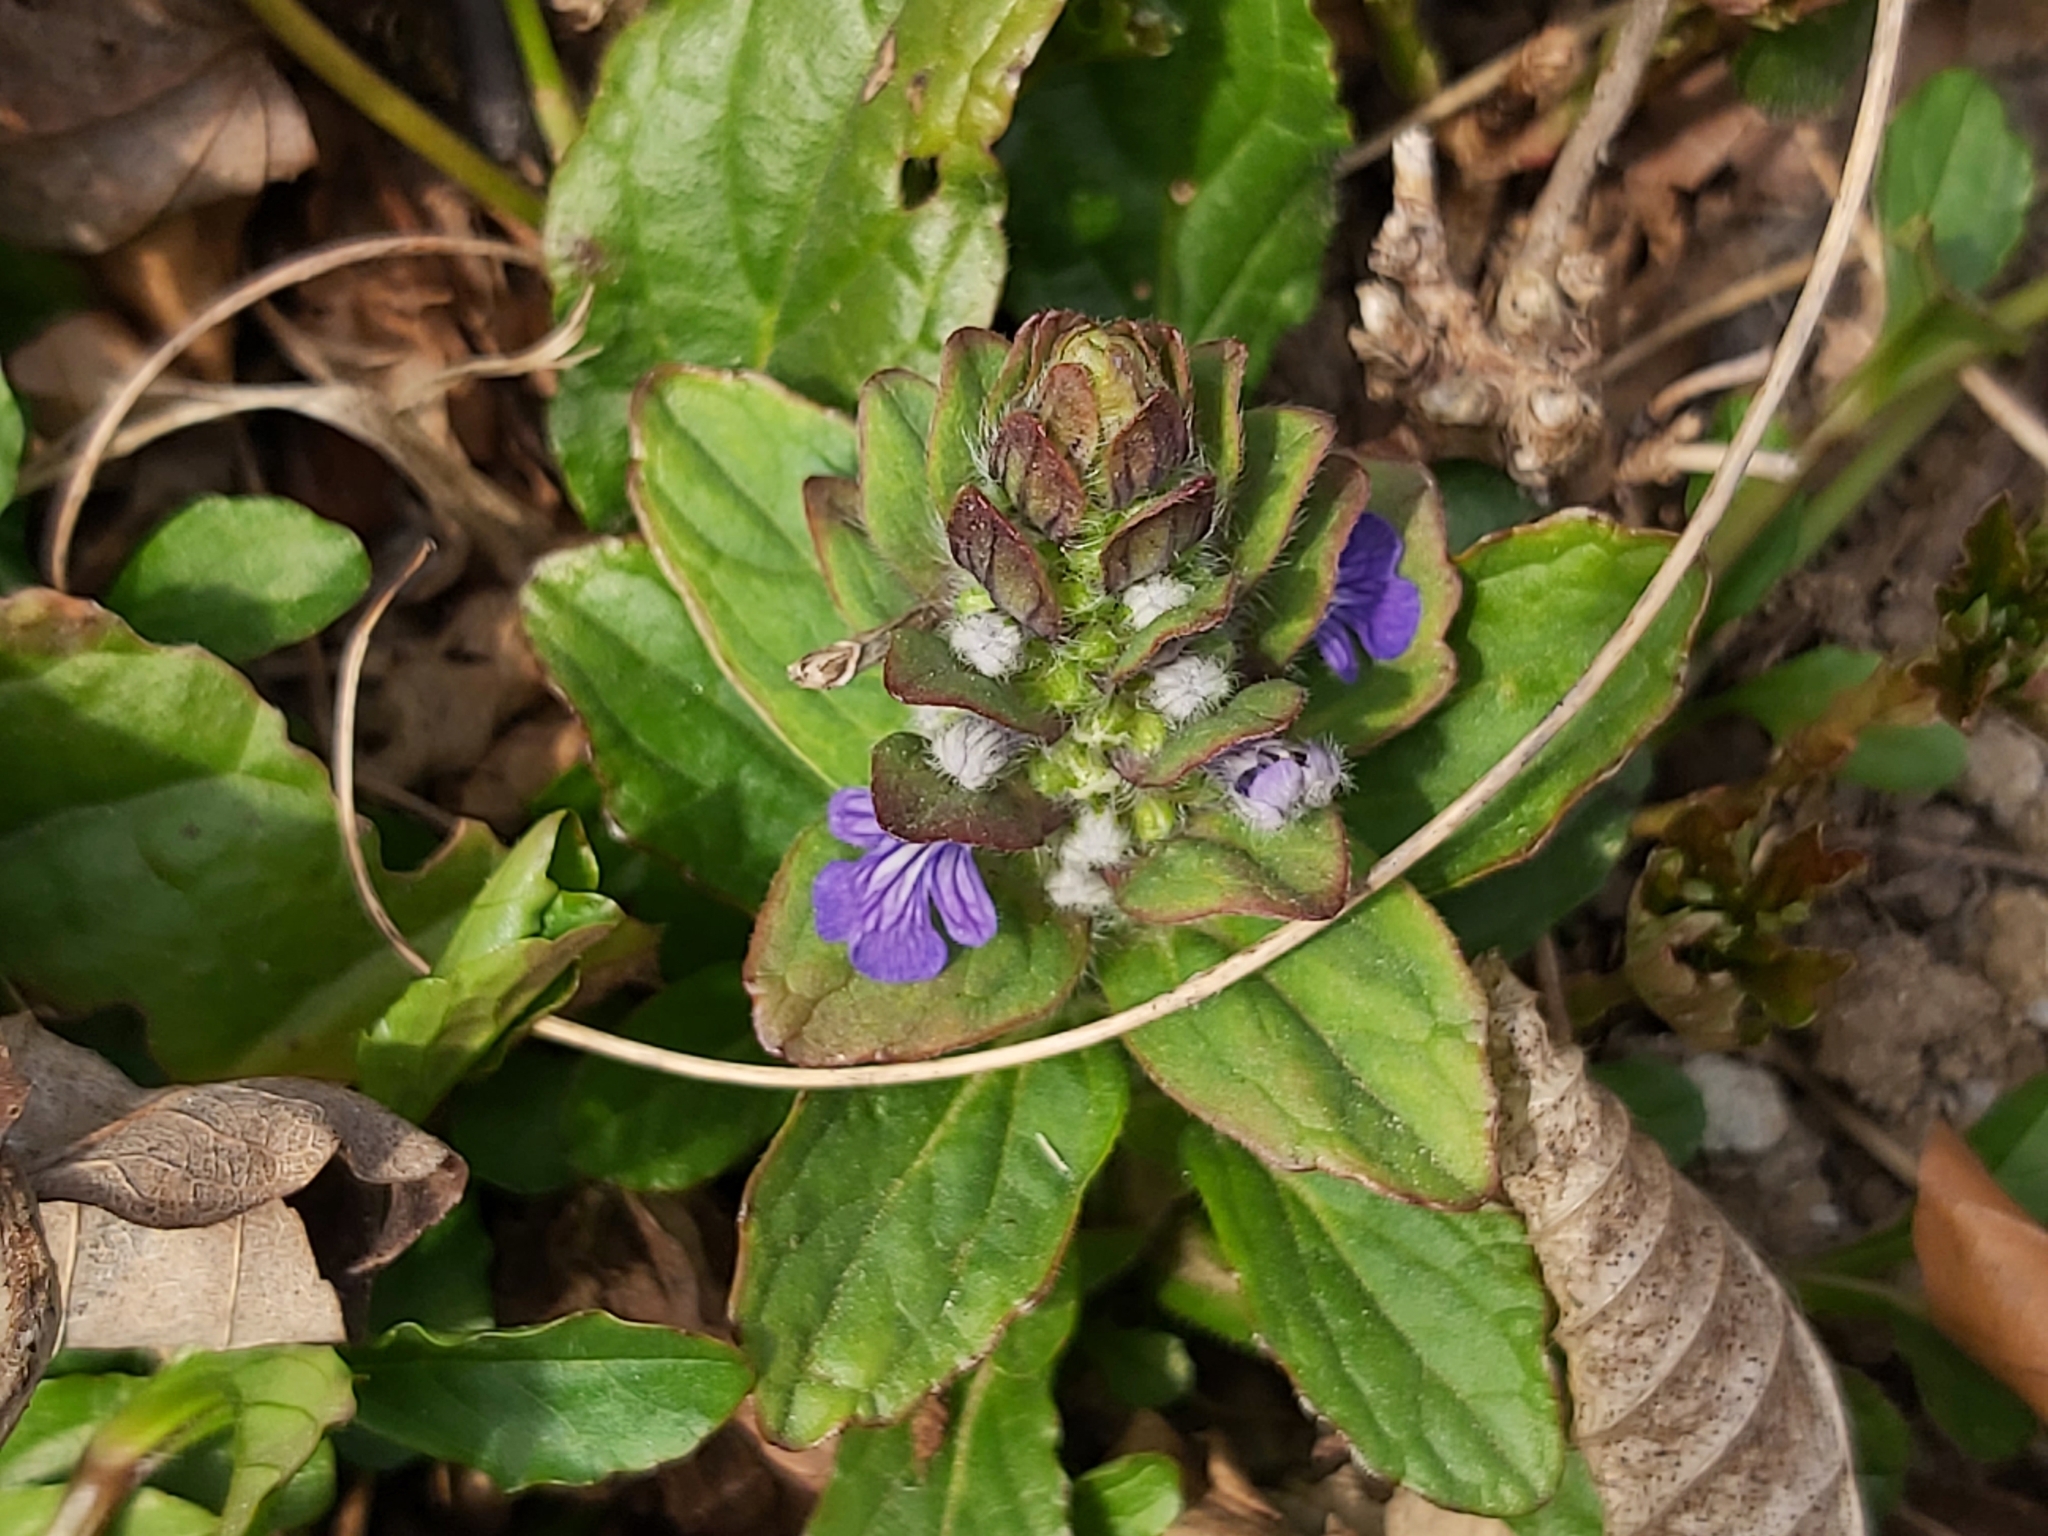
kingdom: Plantae
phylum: Tracheophyta
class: Magnoliopsida
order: Lamiales
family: Lamiaceae
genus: Ajuga
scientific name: Ajuga reptans
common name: Bugle
